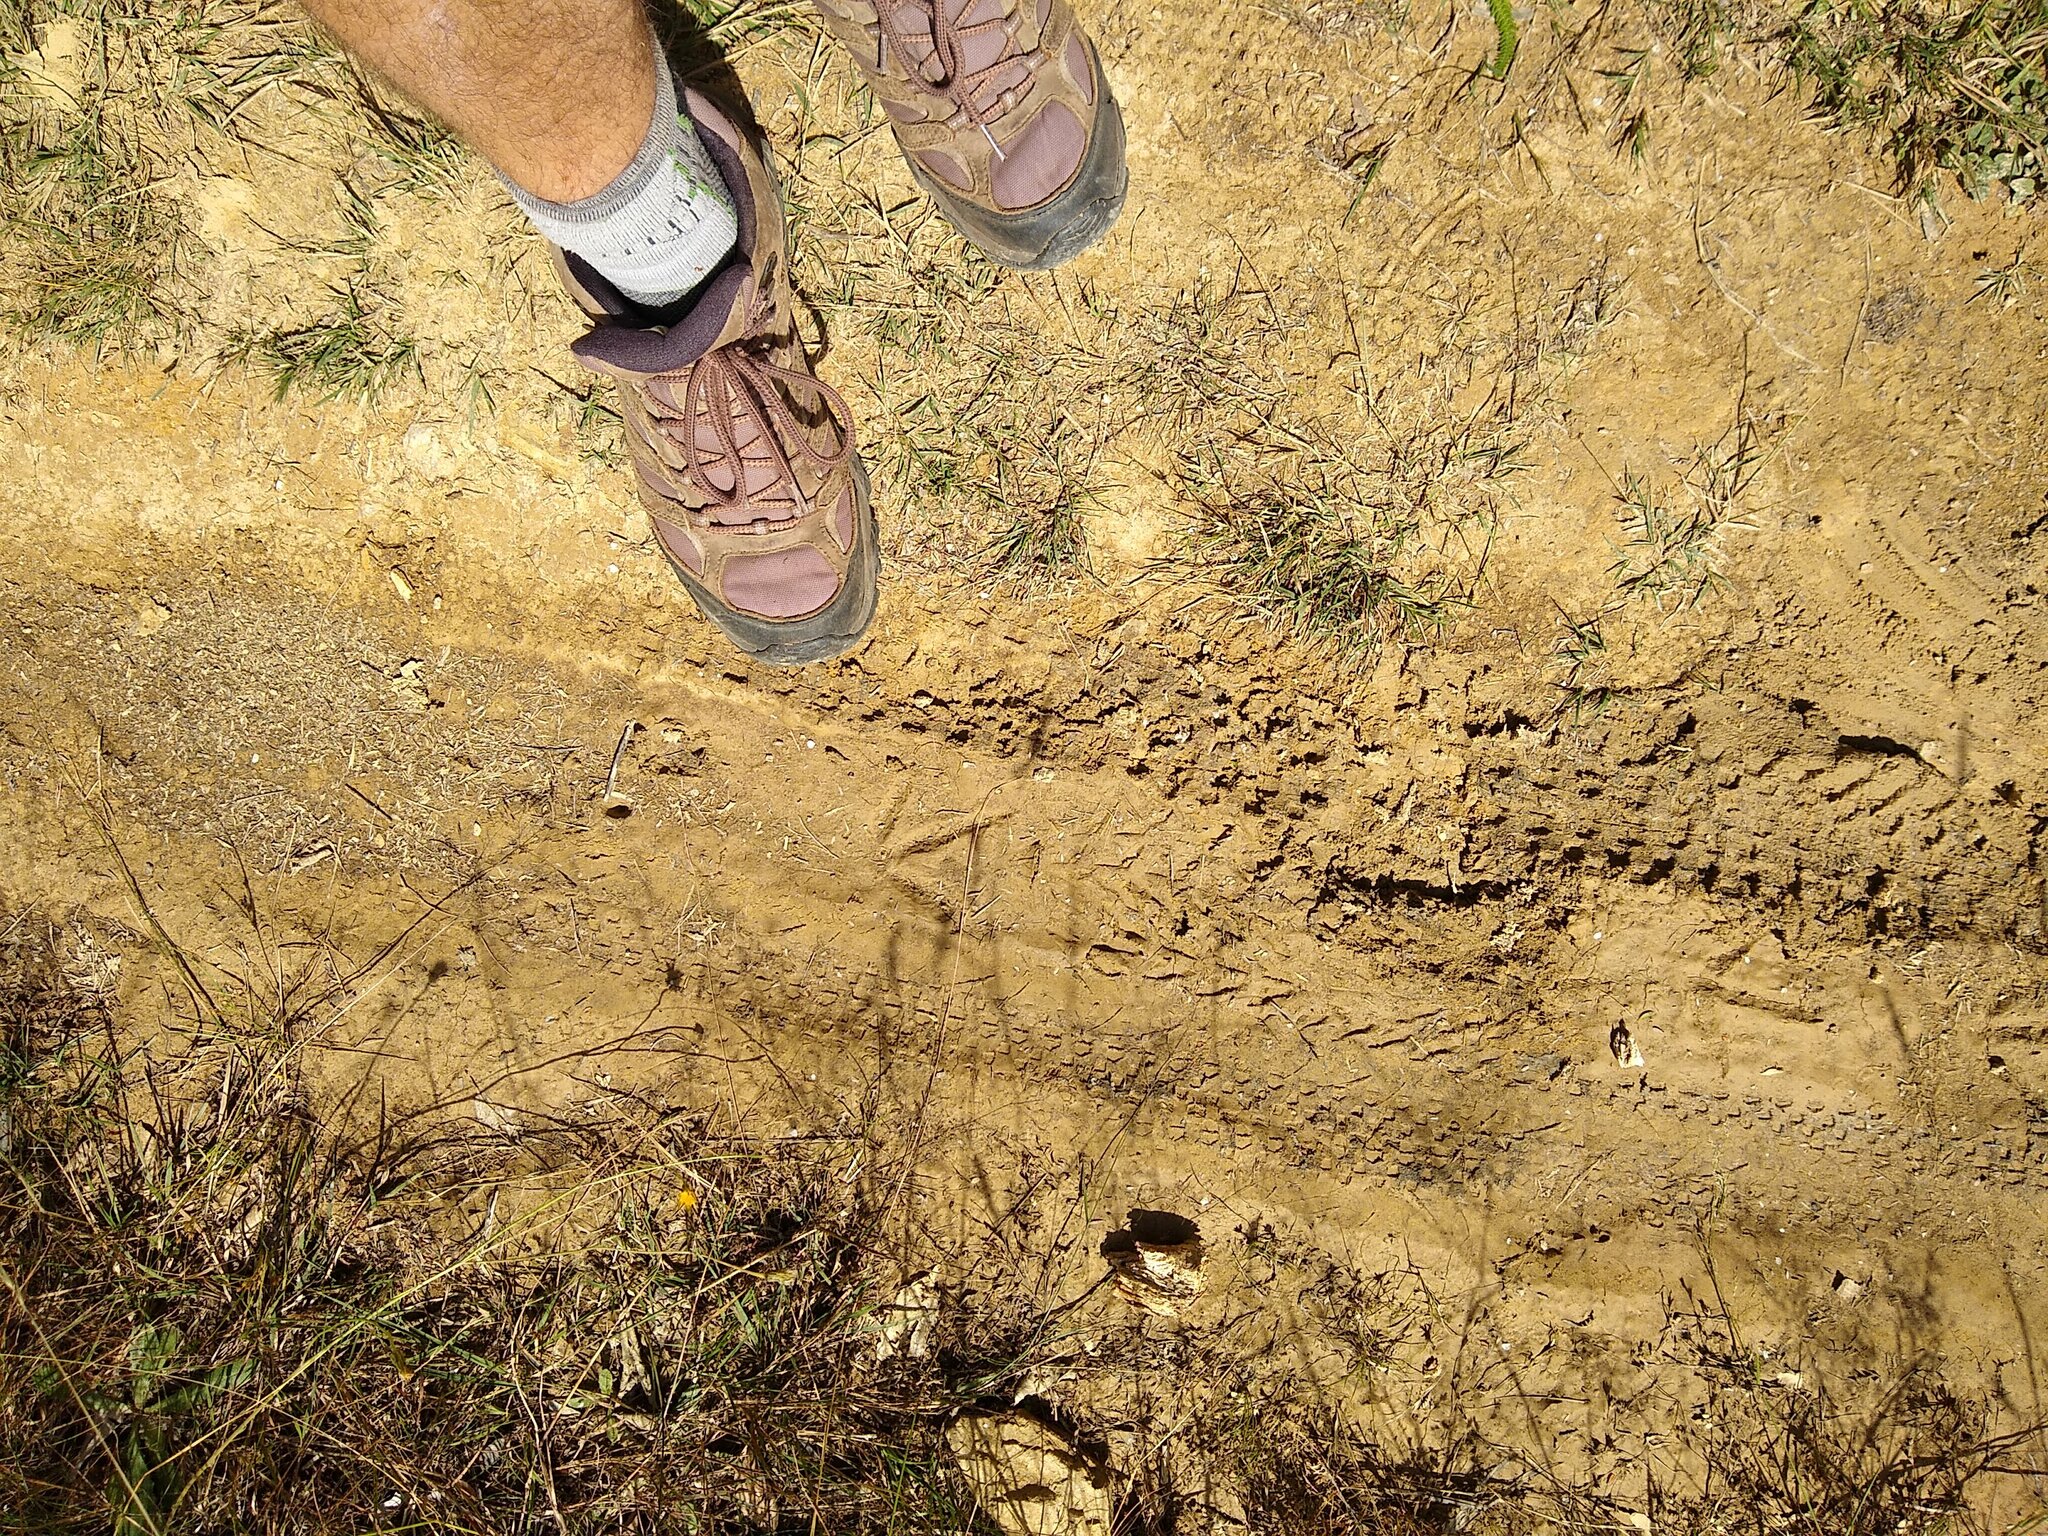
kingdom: Animalia
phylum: Chordata
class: Aves
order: Gruiformes
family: Rallidae
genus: Gallirallus
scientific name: Gallirallus australis
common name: Weka
